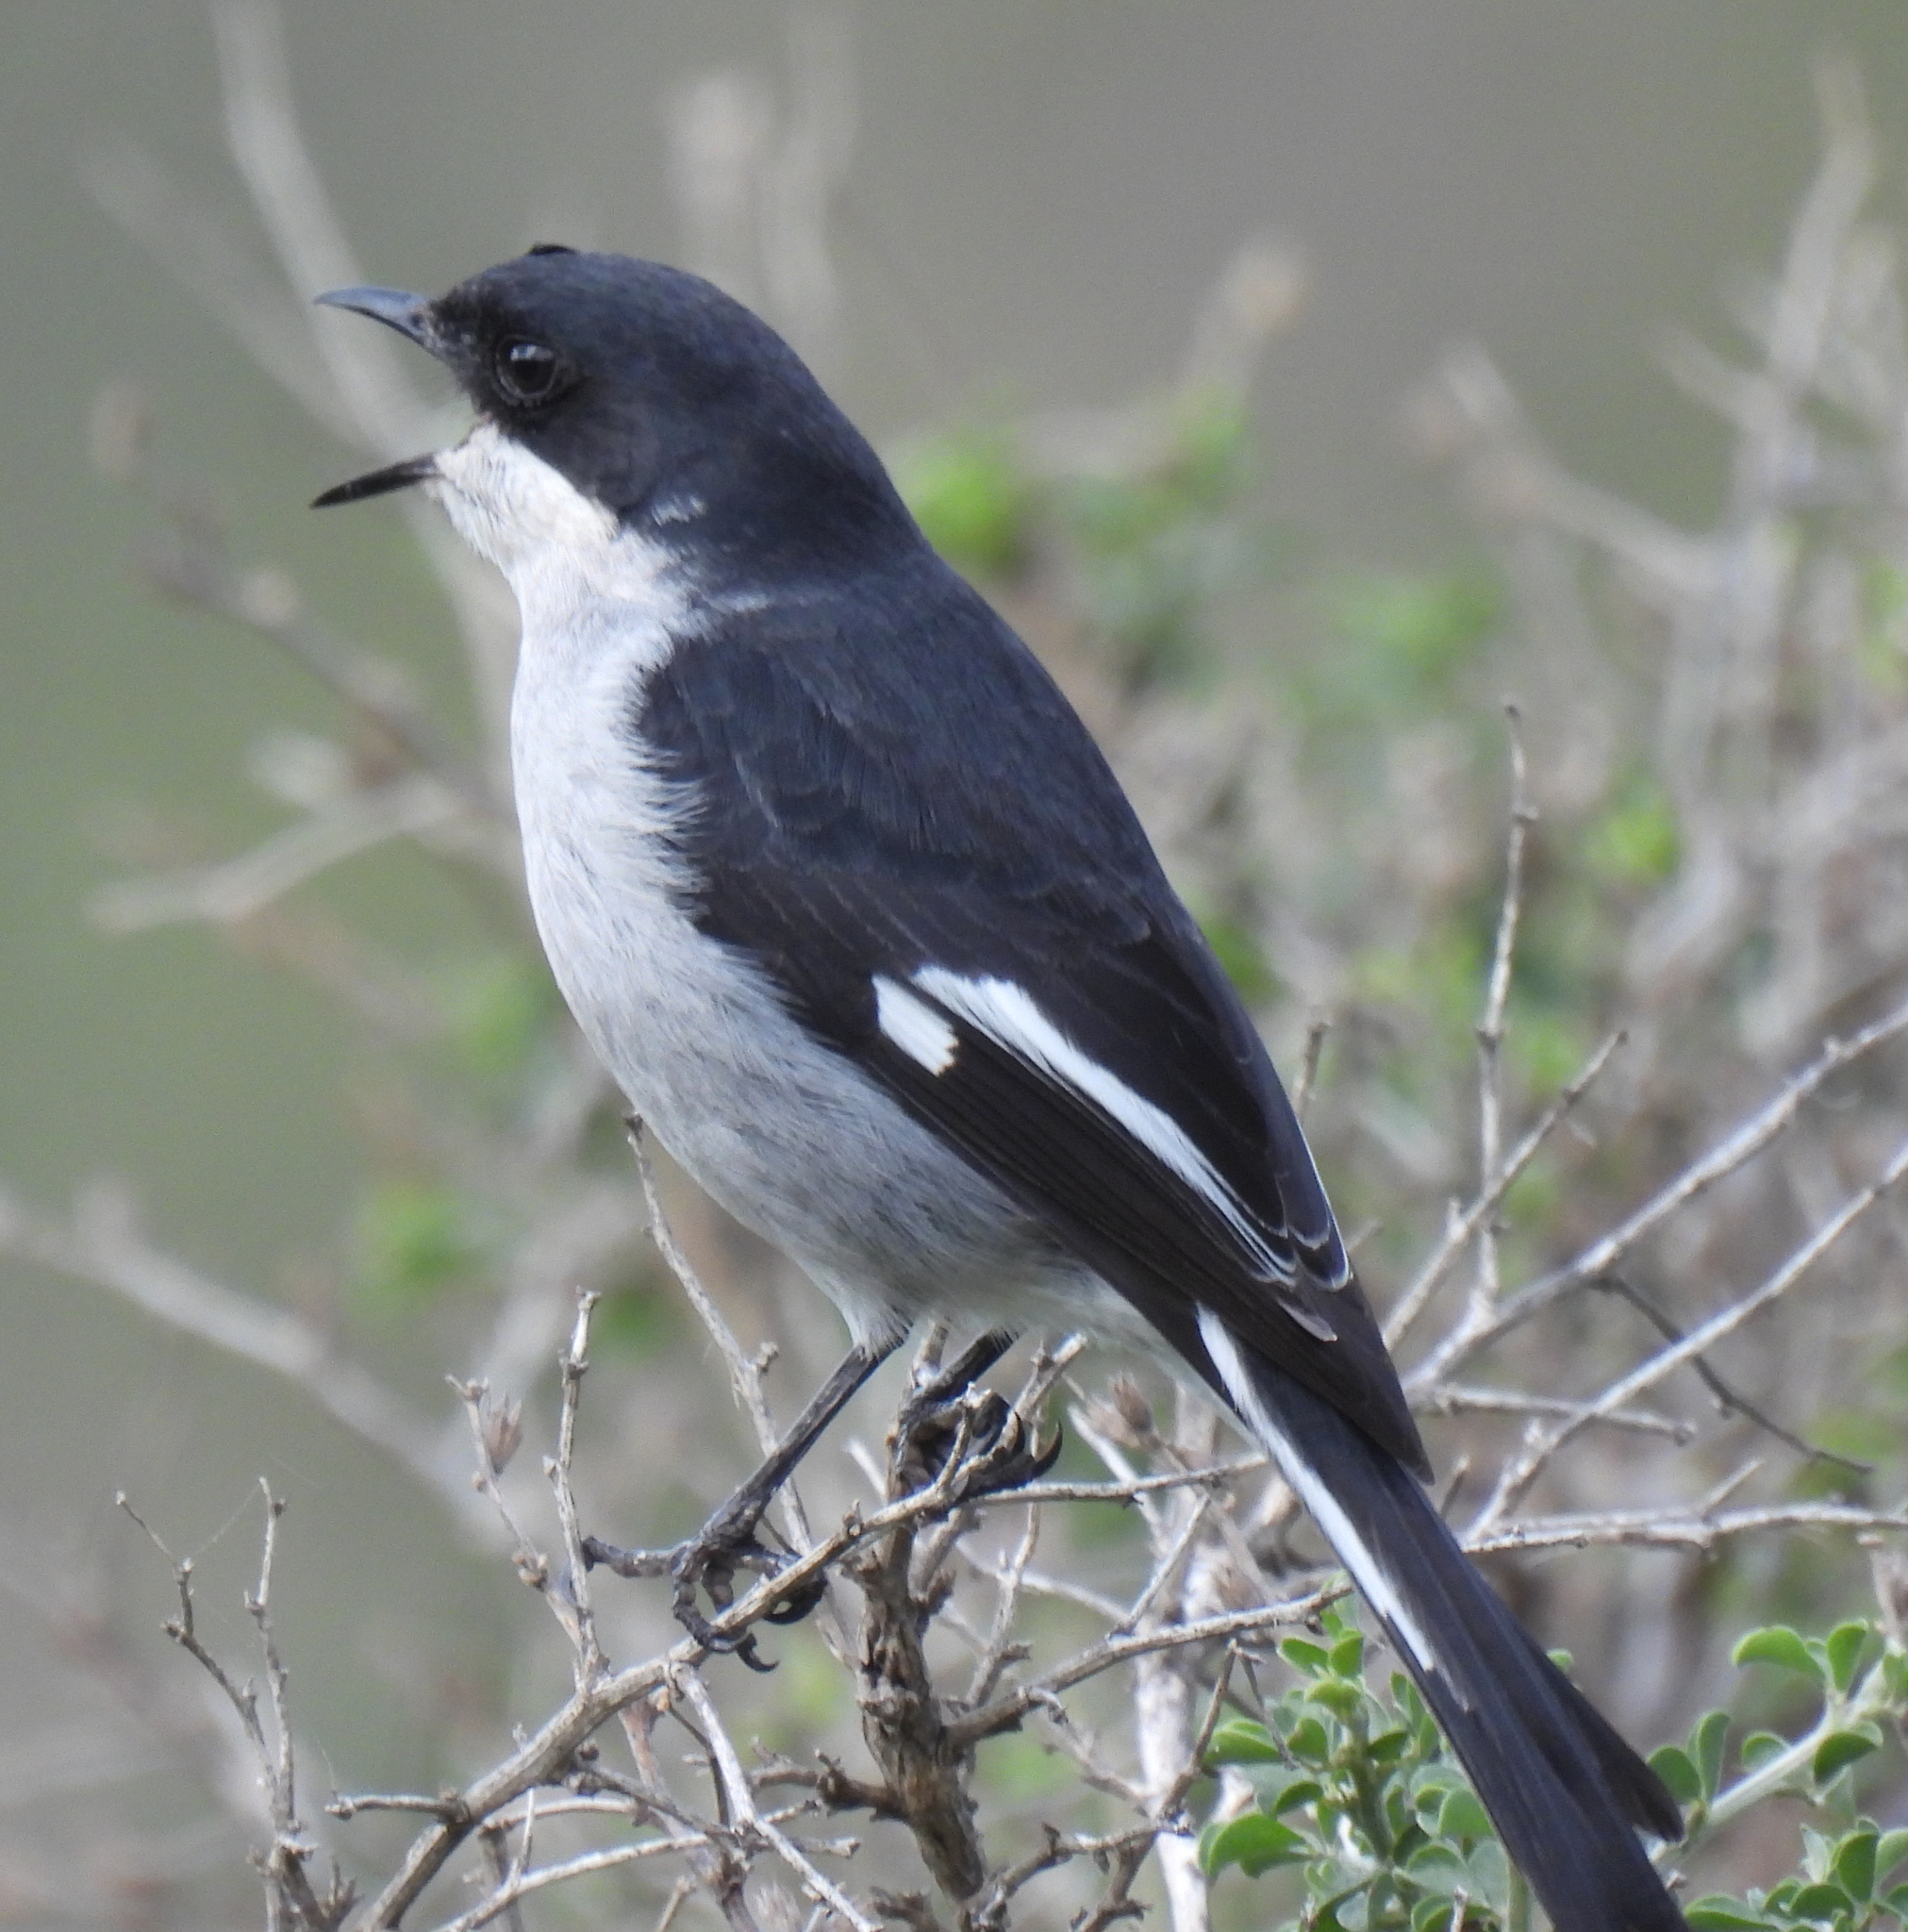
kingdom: Animalia
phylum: Chordata
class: Aves
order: Passeriformes
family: Muscicapidae
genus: Sigelus
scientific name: Sigelus silens
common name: Fiscal flycatcher
